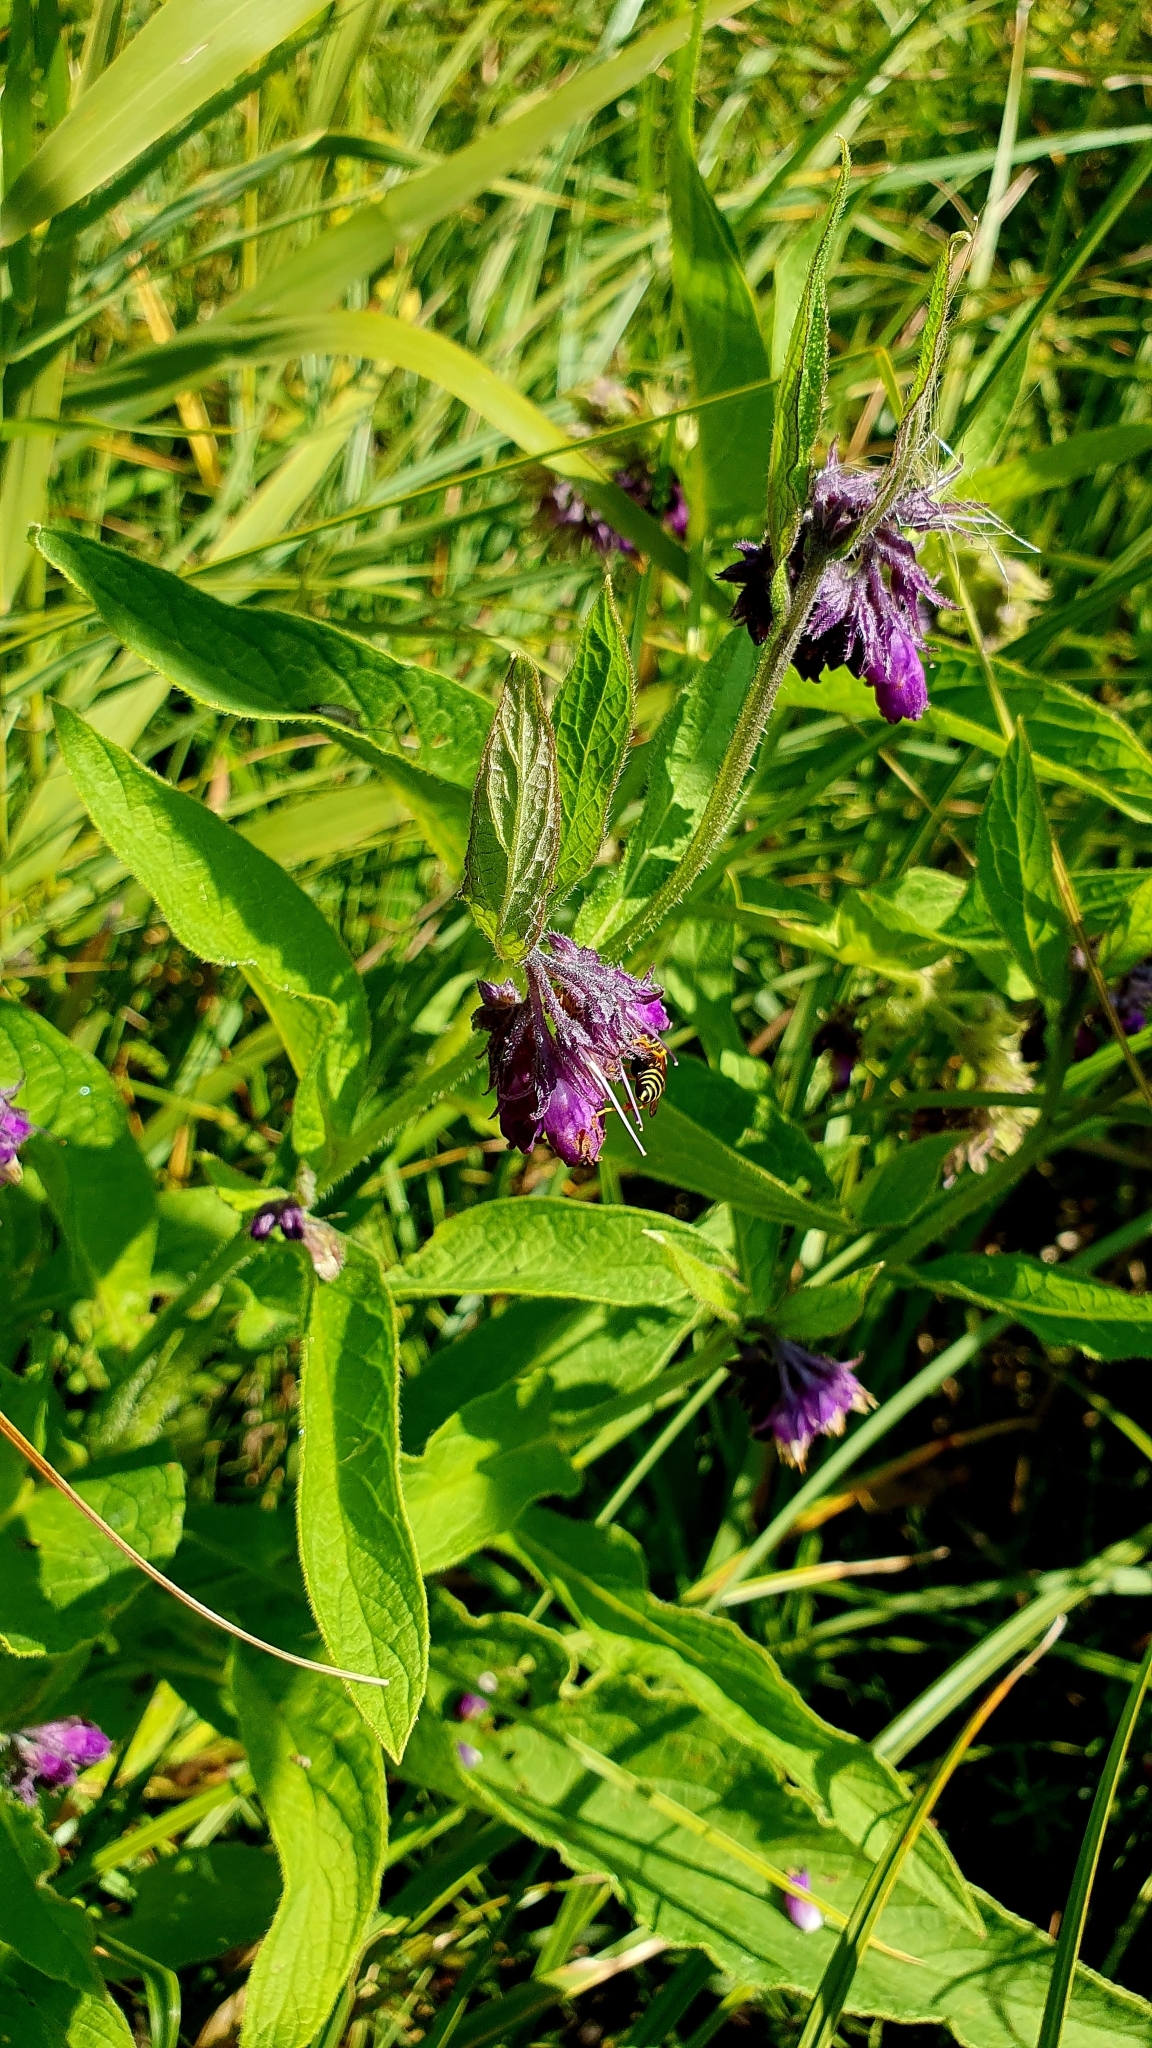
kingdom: Plantae
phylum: Tracheophyta
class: Magnoliopsida
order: Boraginales
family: Boraginaceae
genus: Symphytum
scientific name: Symphytum officinale
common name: Common comfrey
